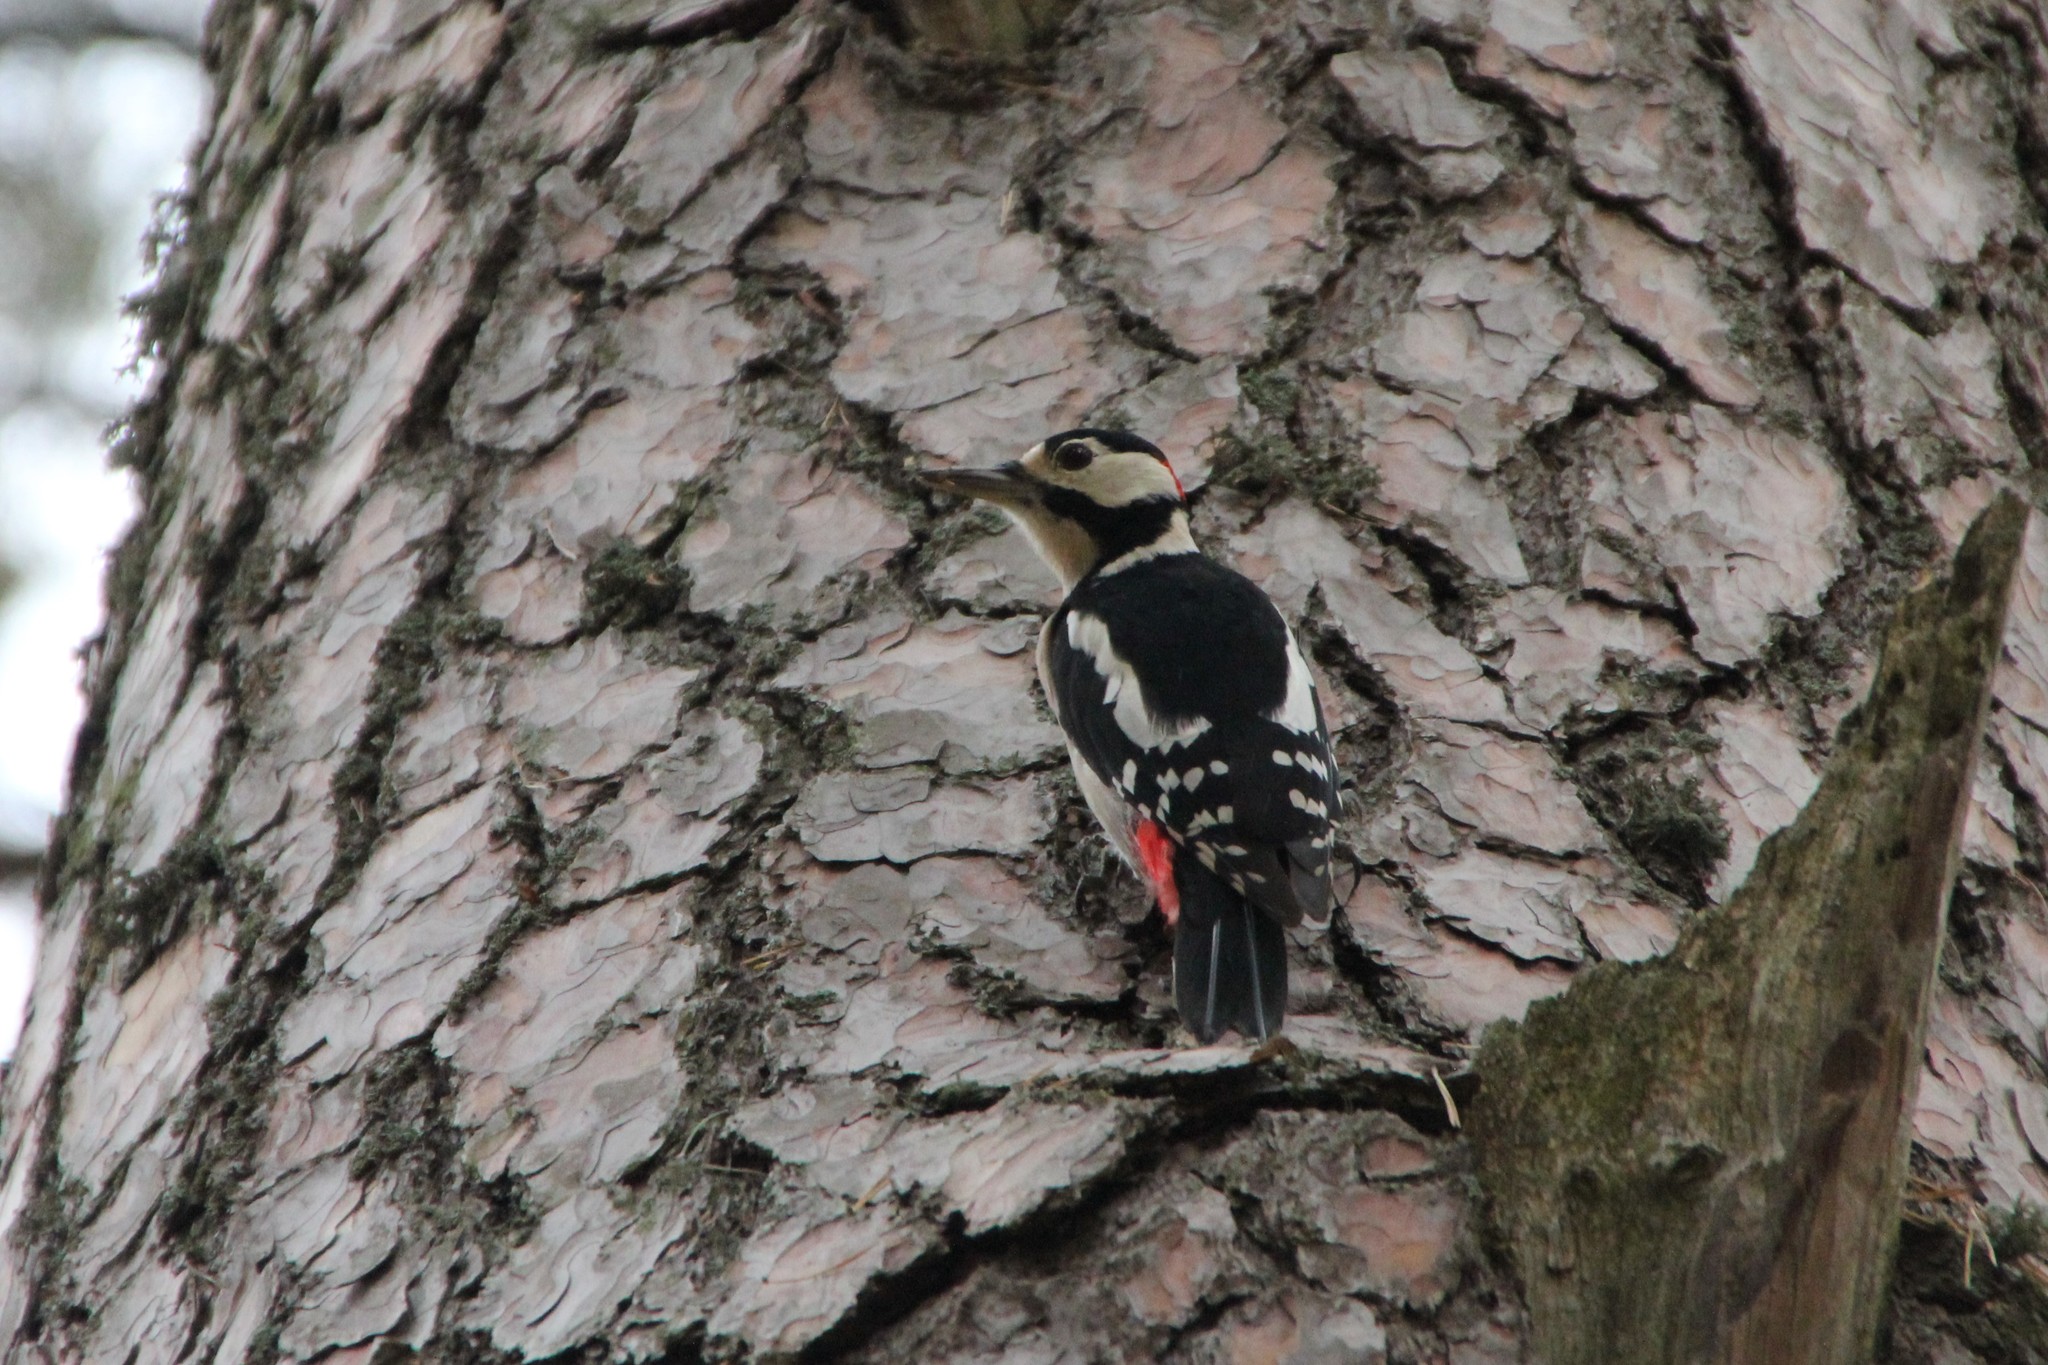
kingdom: Animalia
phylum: Chordata
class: Aves
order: Piciformes
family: Picidae
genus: Dendrocopos
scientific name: Dendrocopos major
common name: Great spotted woodpecker
